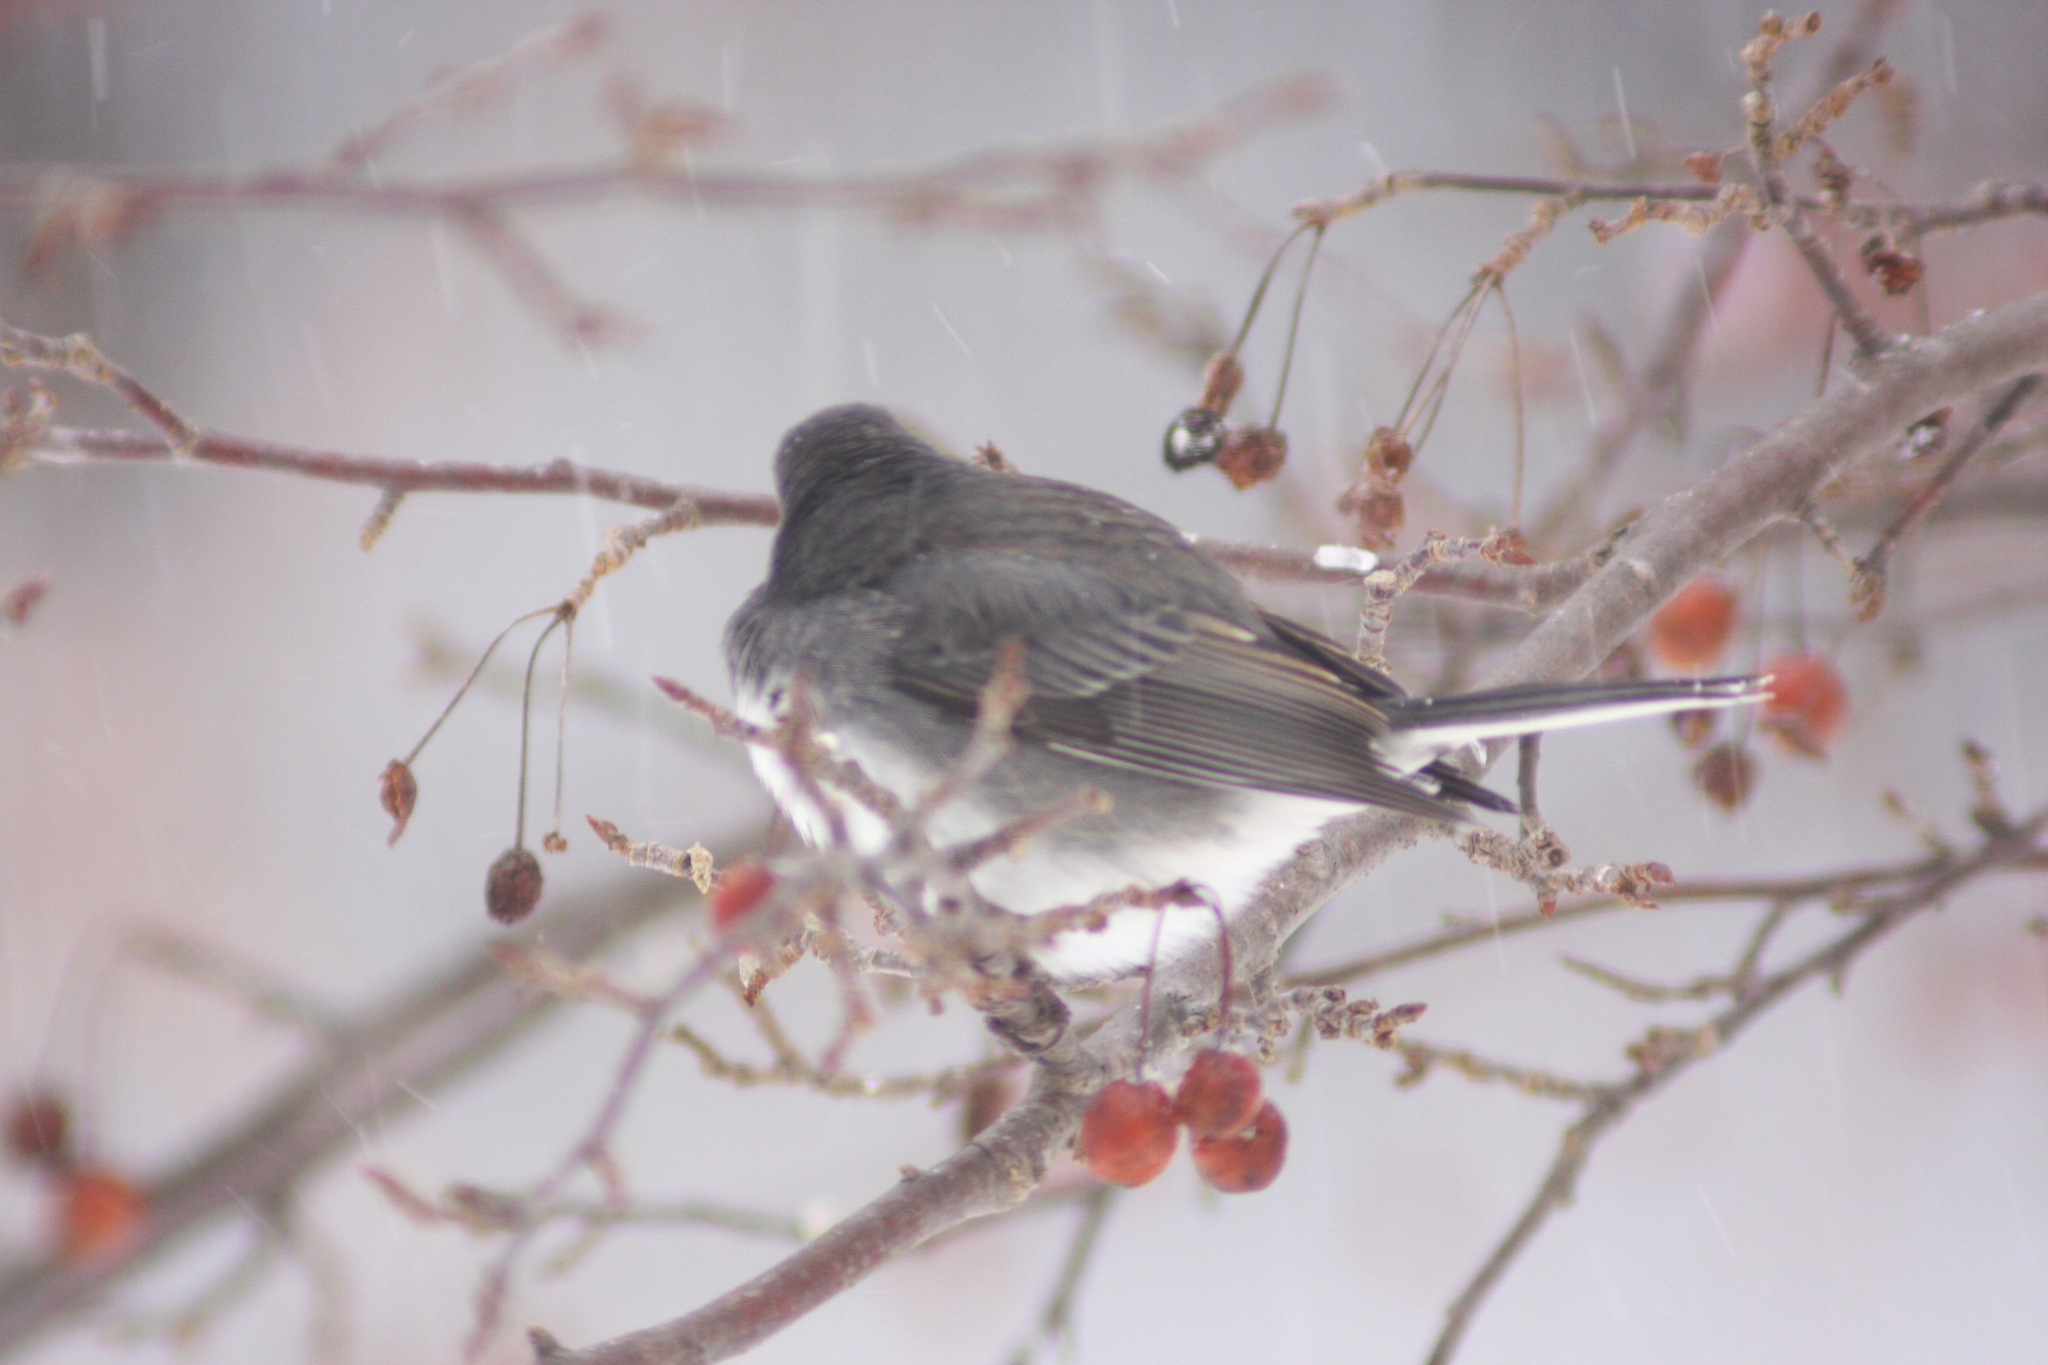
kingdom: Animalia
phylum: Chordata
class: Aves
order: Passeriformes
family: Passerellidae
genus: Junco
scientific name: Junco hyemalis
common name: Dark-eyed junco
